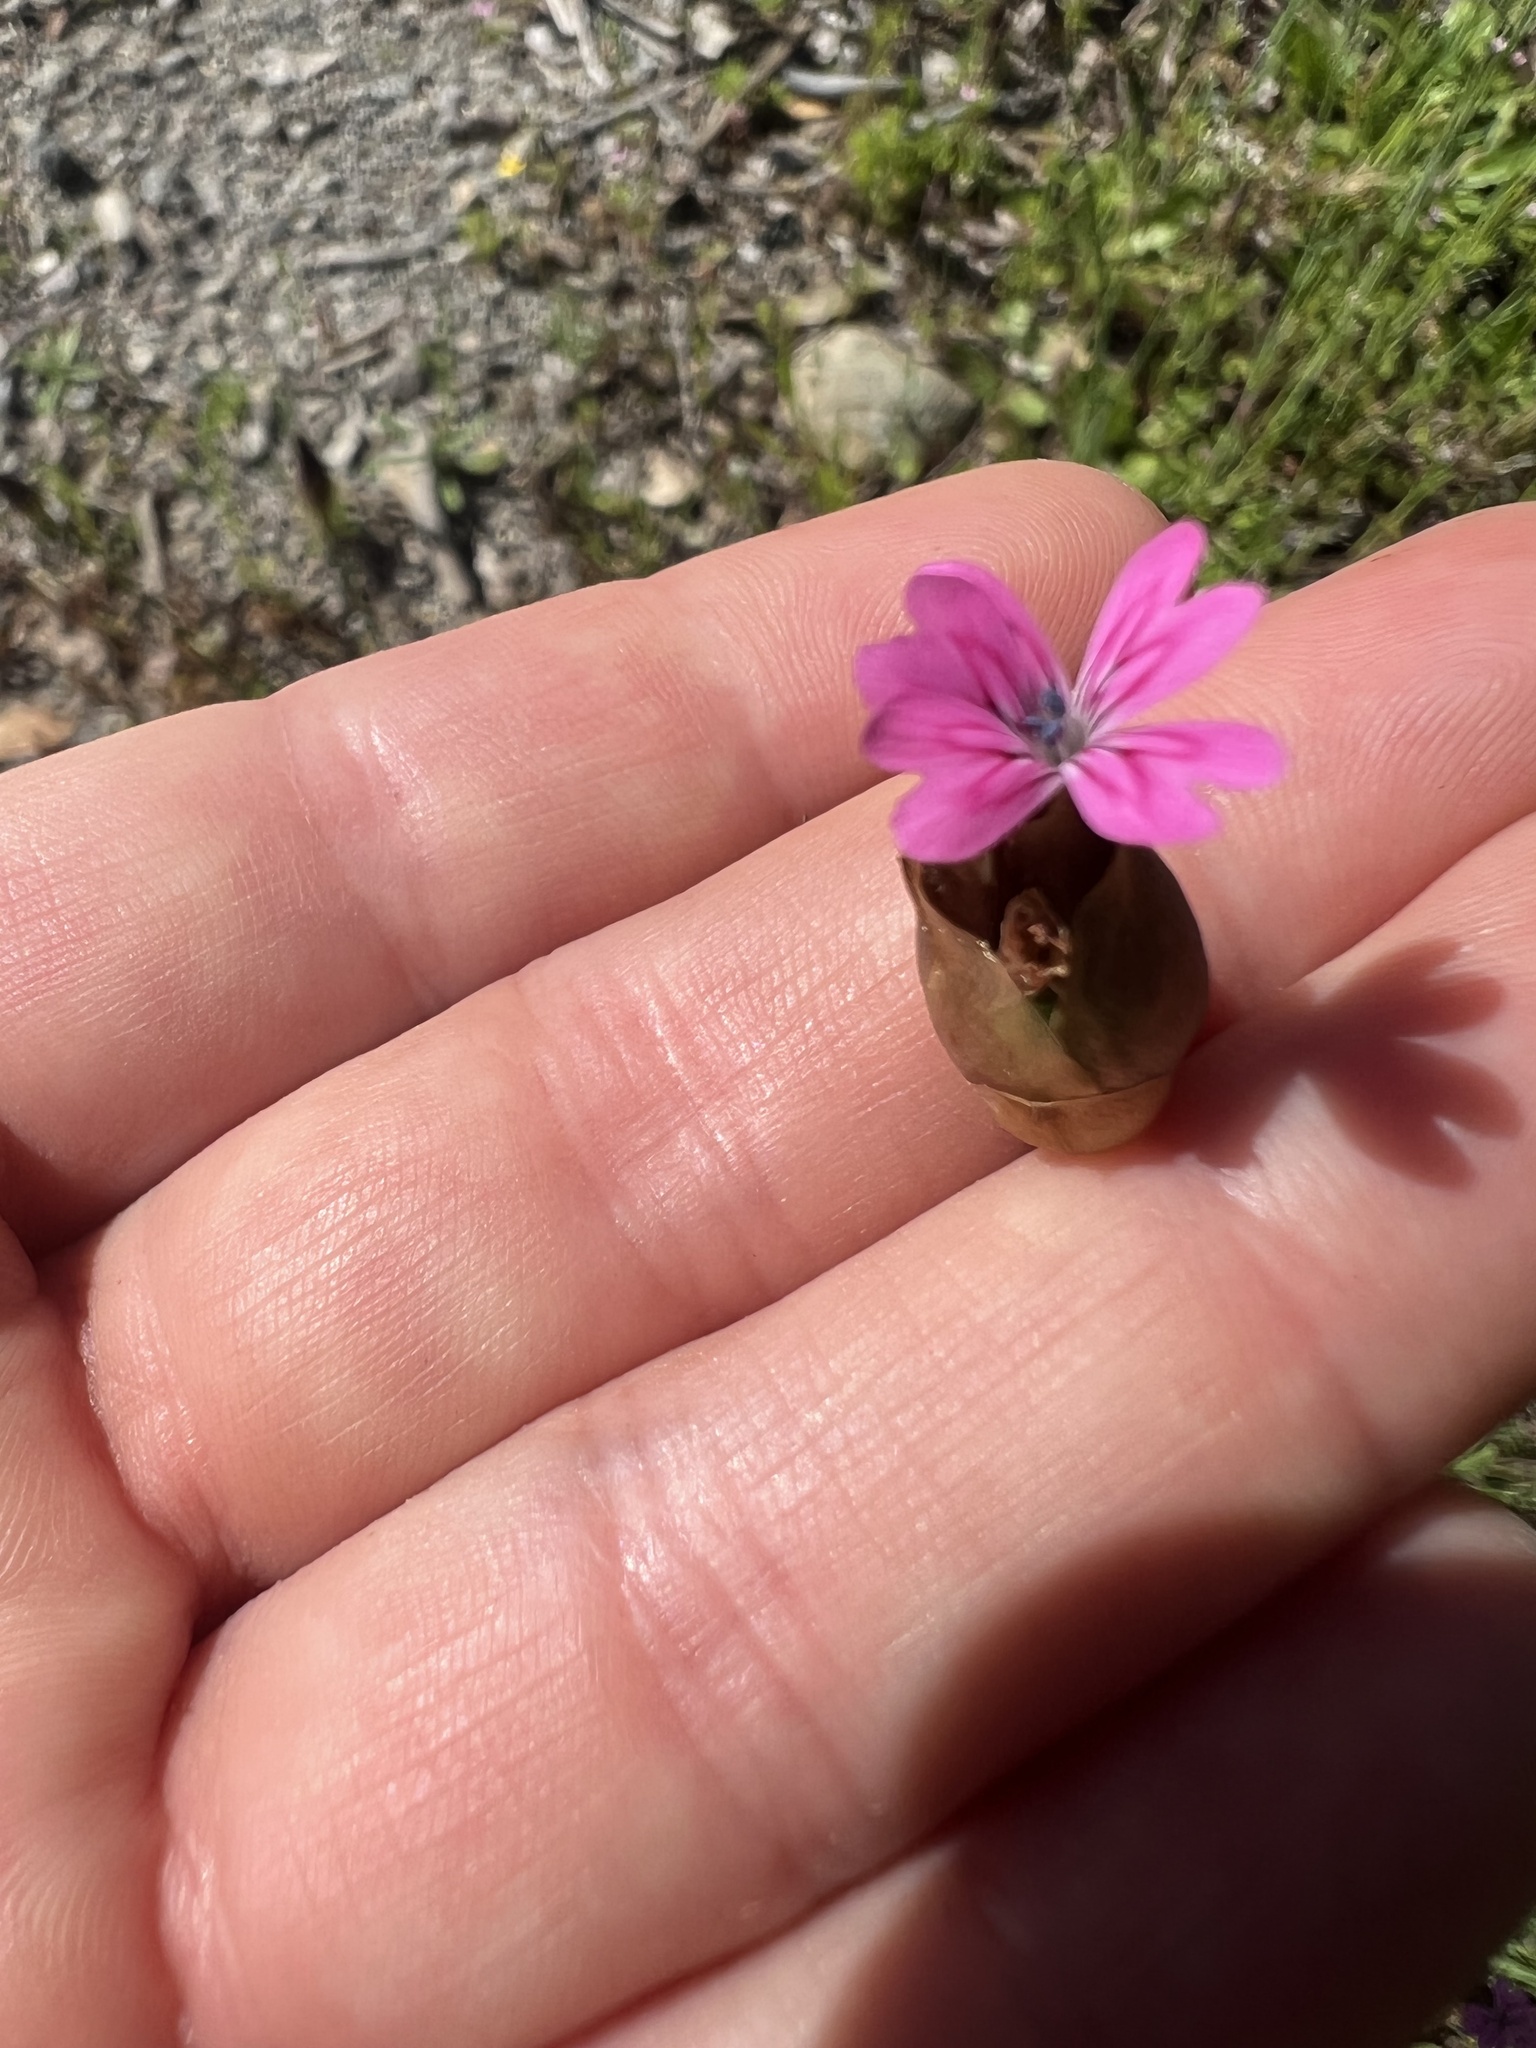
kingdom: Plantae
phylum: Tracheophyta
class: Magnoliopsida
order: Caryophyllales
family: Caryophyllaceae
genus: Petrorhagia
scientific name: Petrorhagia dubia
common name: Hairypink
